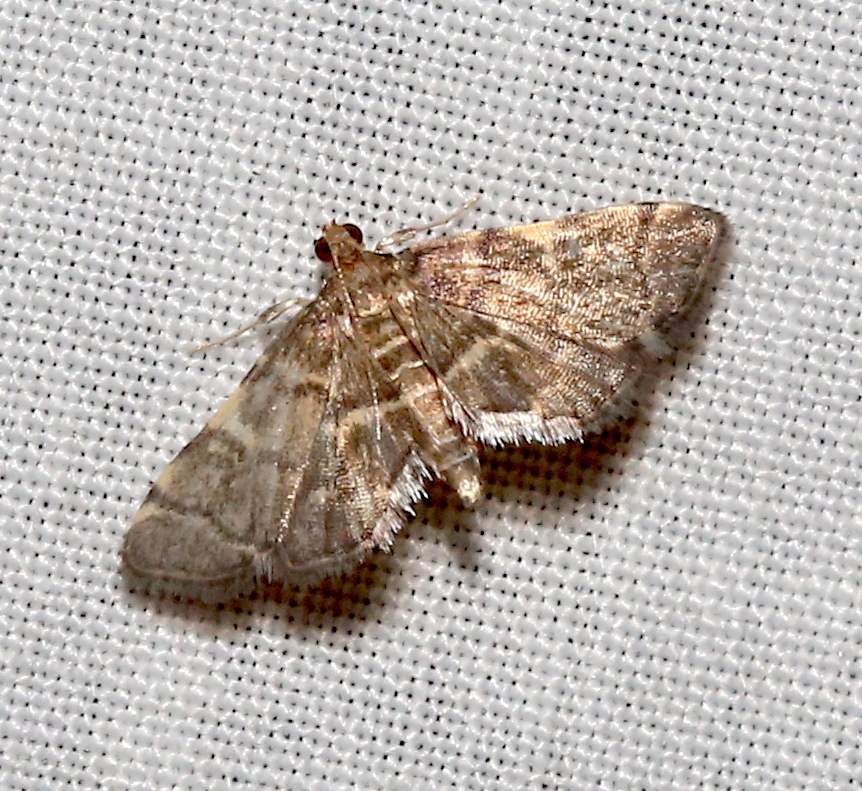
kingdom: Animalia
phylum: Arthropoda
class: Insecta
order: Lepidoptera
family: Crambidae
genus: Anageshna
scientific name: Anageshna primordialis
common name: Yellow-spotted webworm moth
